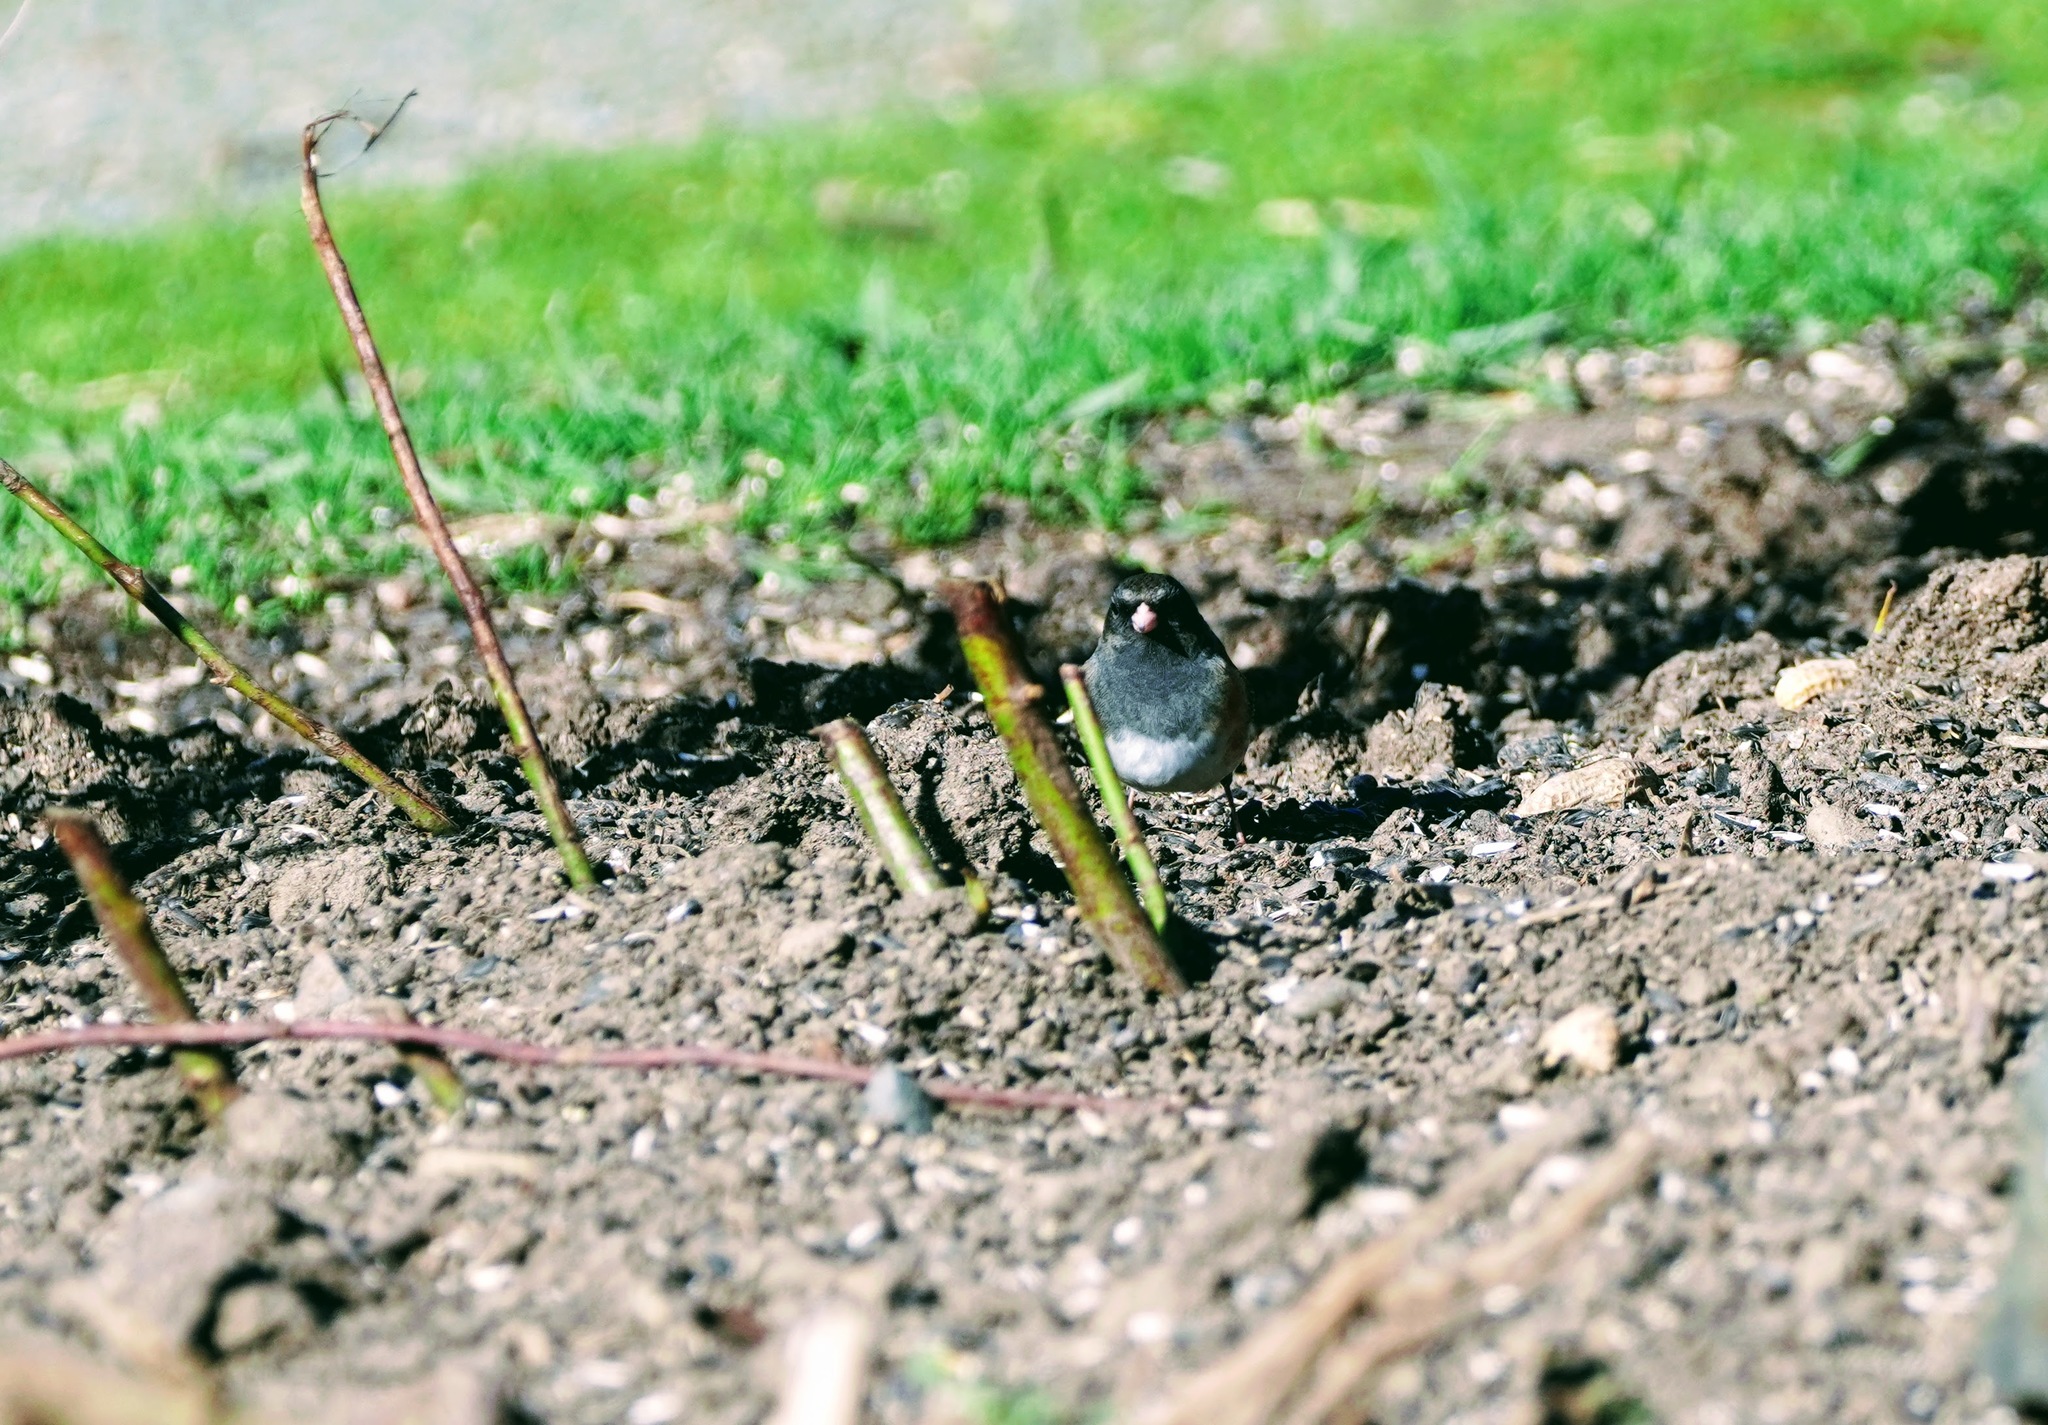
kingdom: Animalia
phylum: Chordata
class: Aves
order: Passeriformes
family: Passerellidae
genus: Junco
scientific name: Junco hyemalis
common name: Dark-eyed junco
